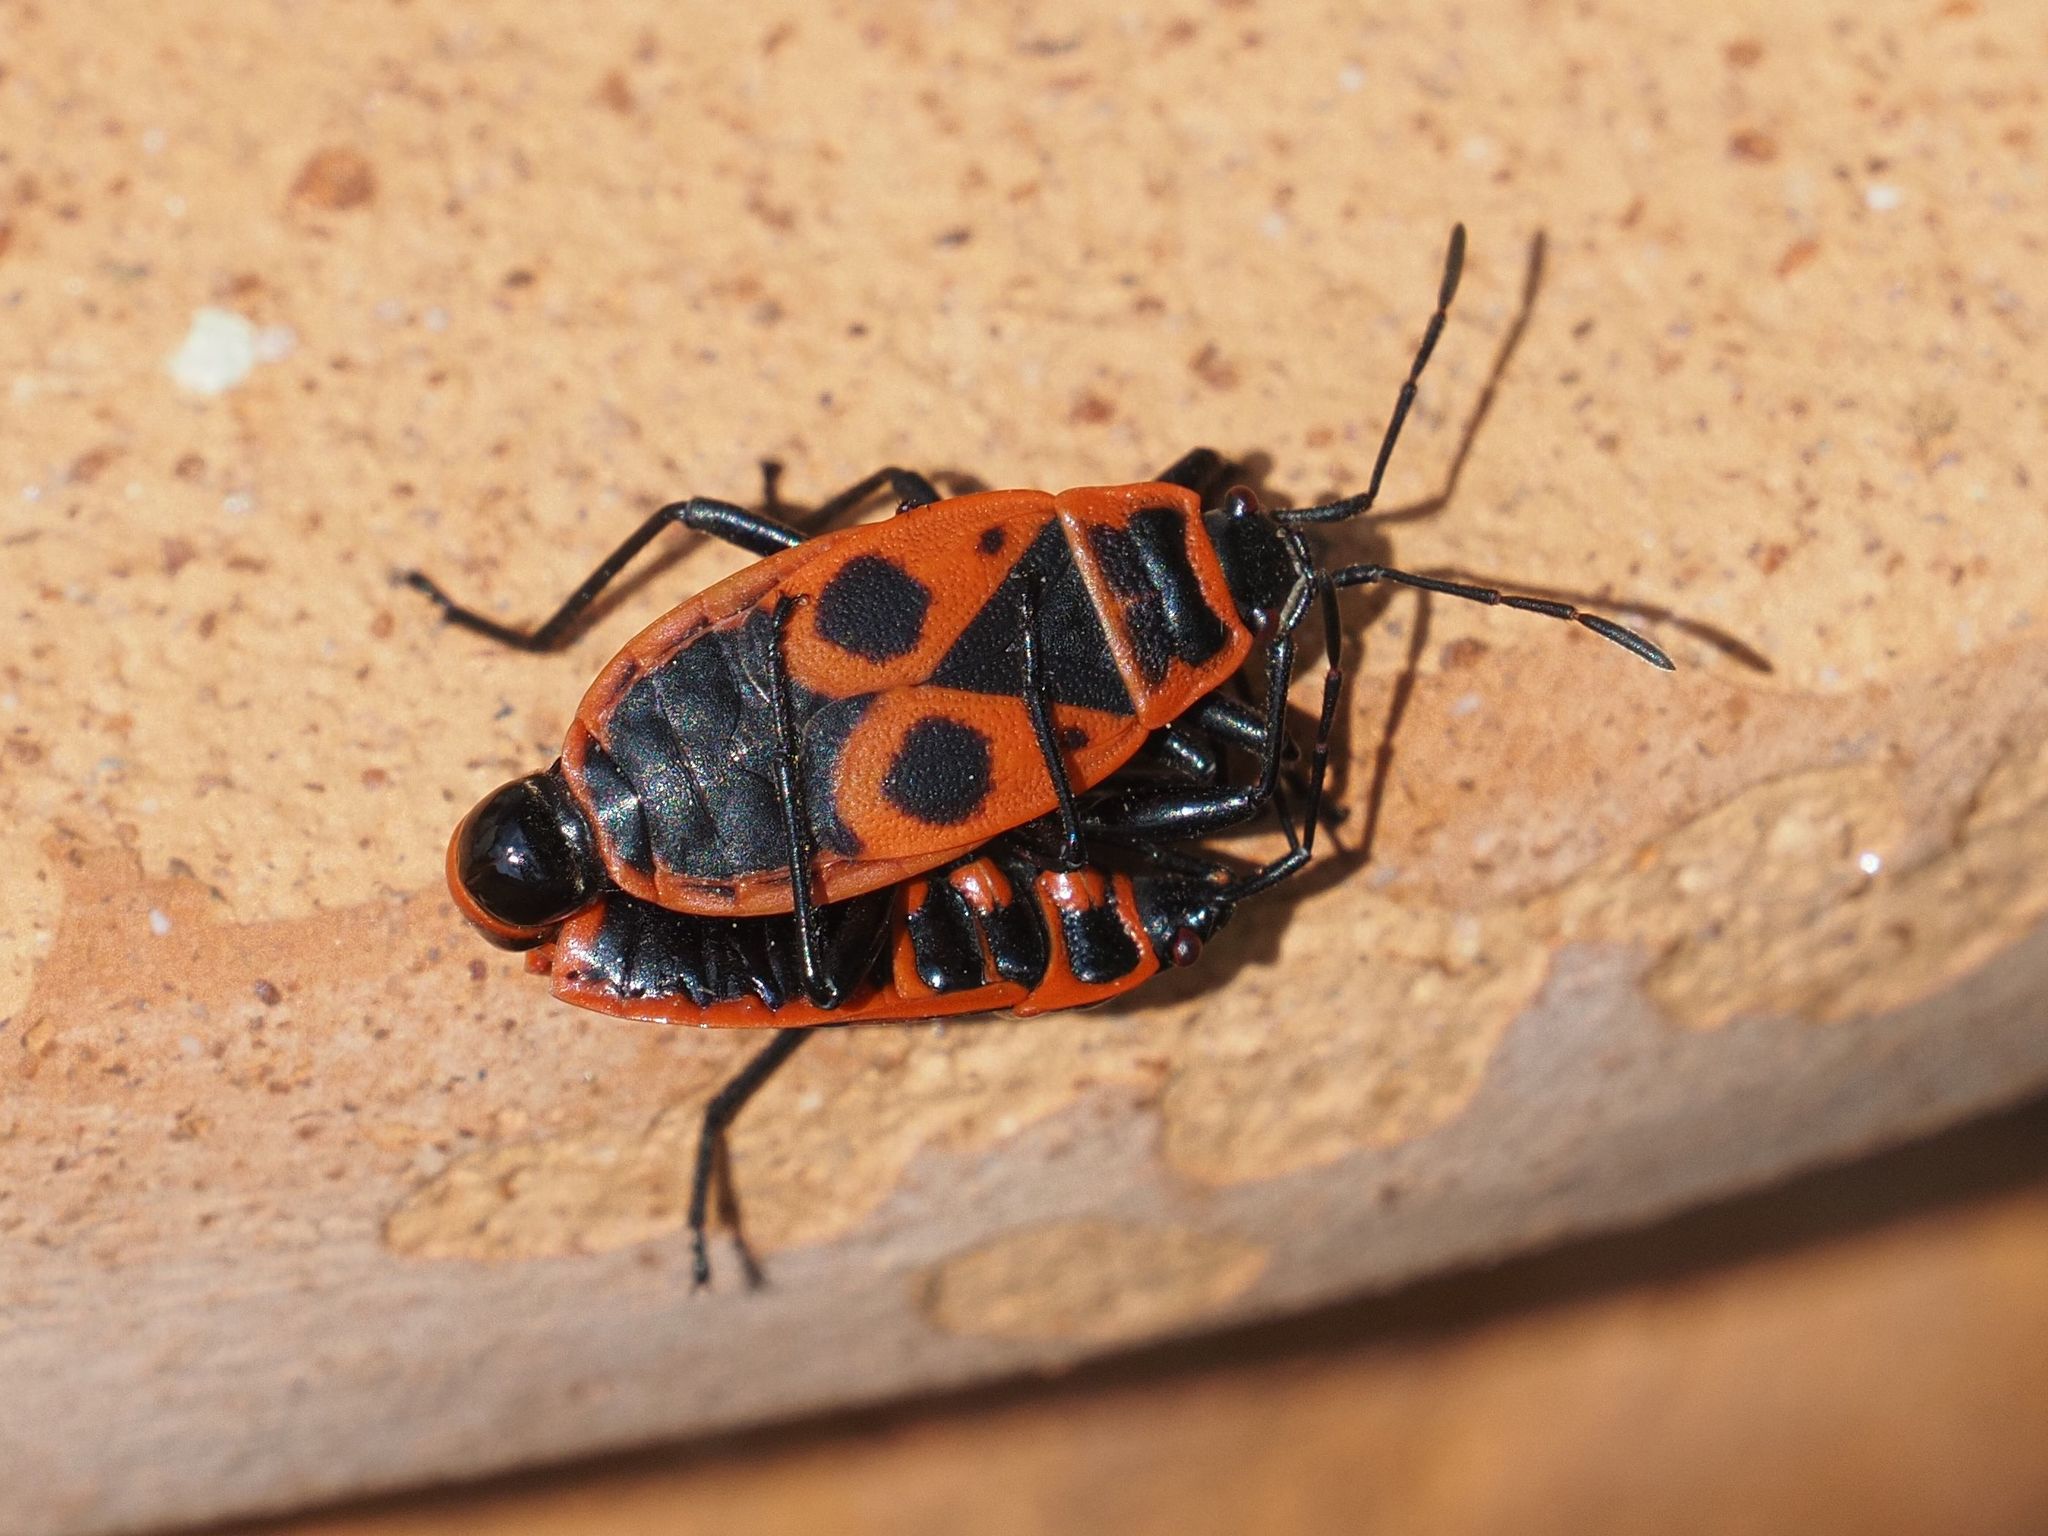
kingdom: Animalia
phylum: Arthropoda
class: Insecta
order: Hemiptera
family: Pyrrhocoridae
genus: Pyrrhocoris
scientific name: Pyrrhocoris apterus
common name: Firebug
